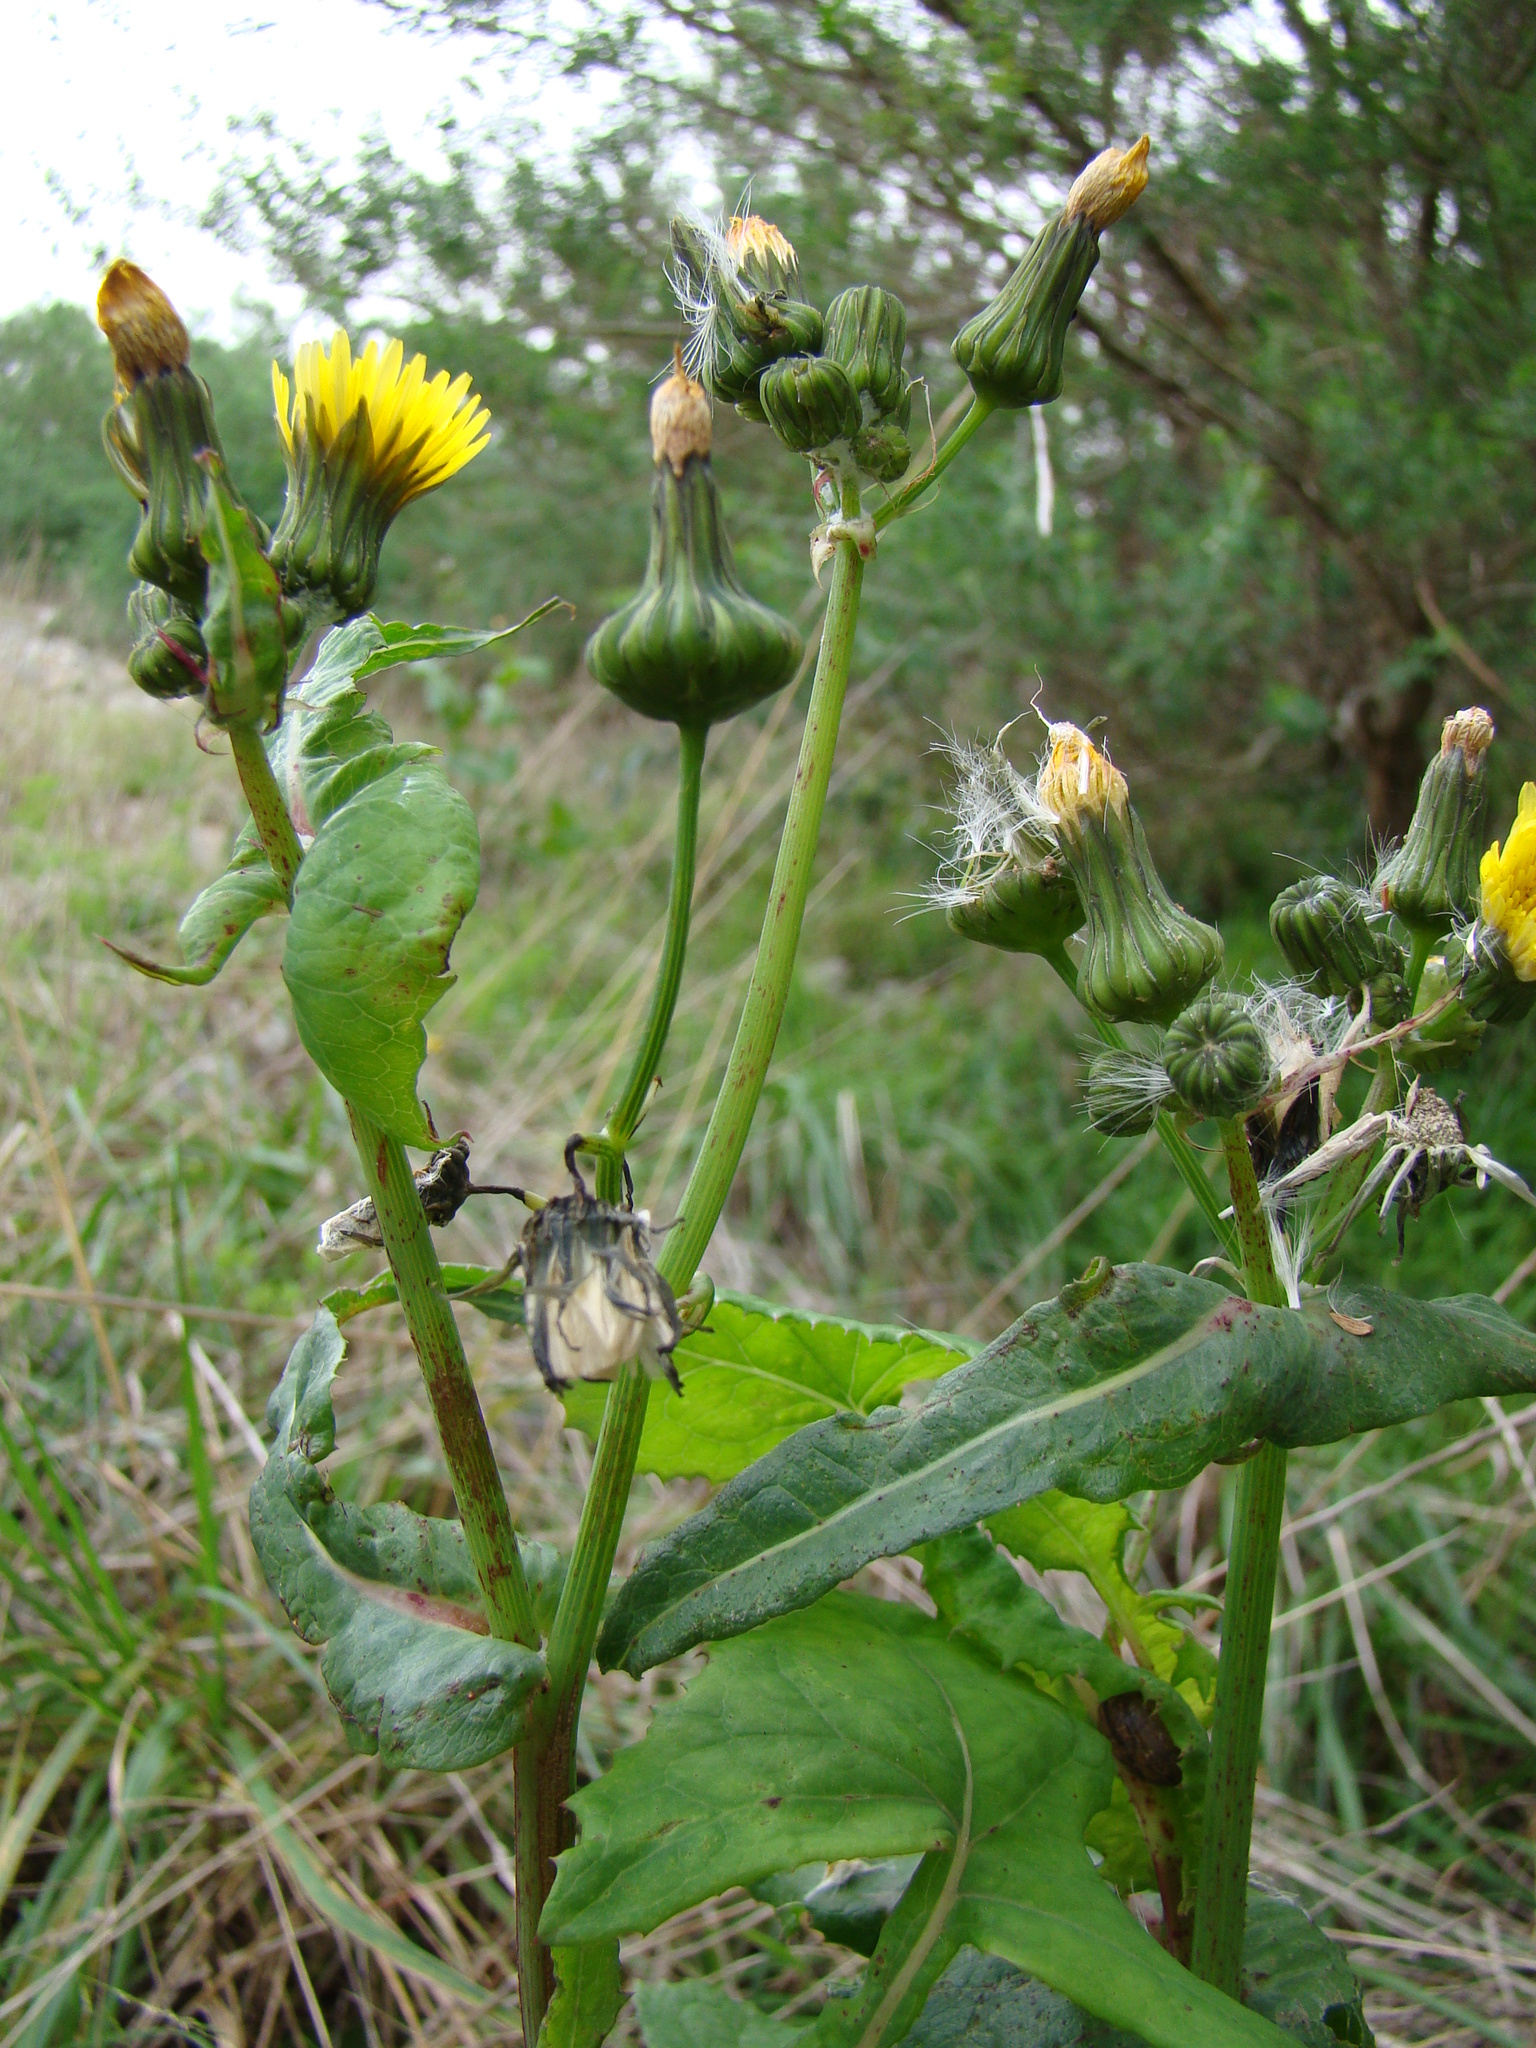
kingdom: Plantae
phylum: Tracheophyta
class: Magnoliopsida
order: Asterales
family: Asteraceae
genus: Sonchus
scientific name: Sonchus oleraceus
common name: Common sowthistle
